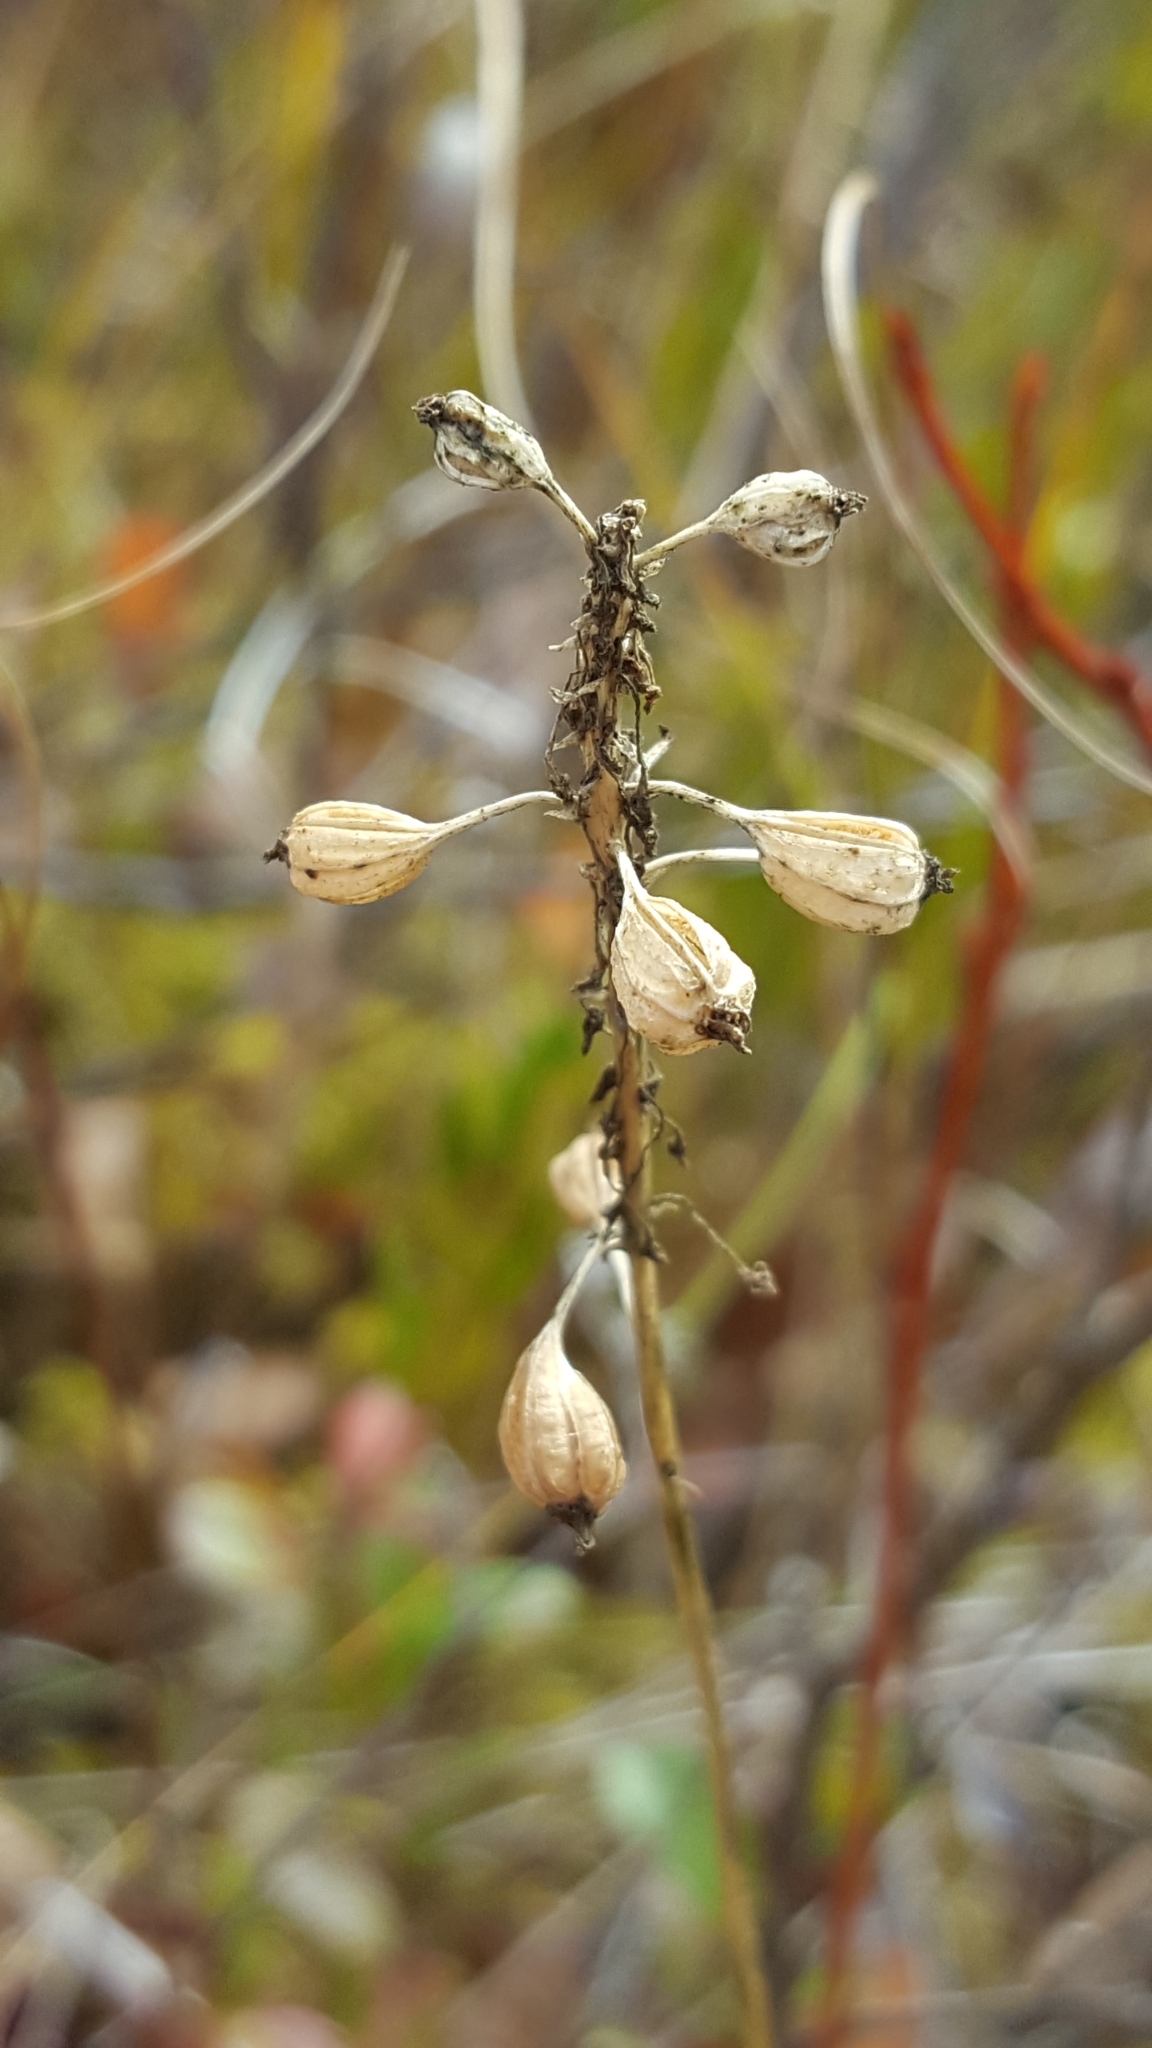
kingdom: Plantae
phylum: Tracheophyta
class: Liliopsida
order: Asparagales
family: Orchidaceae
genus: Malaxis
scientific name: Malaxis unifolia
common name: Green adder's-mouth
